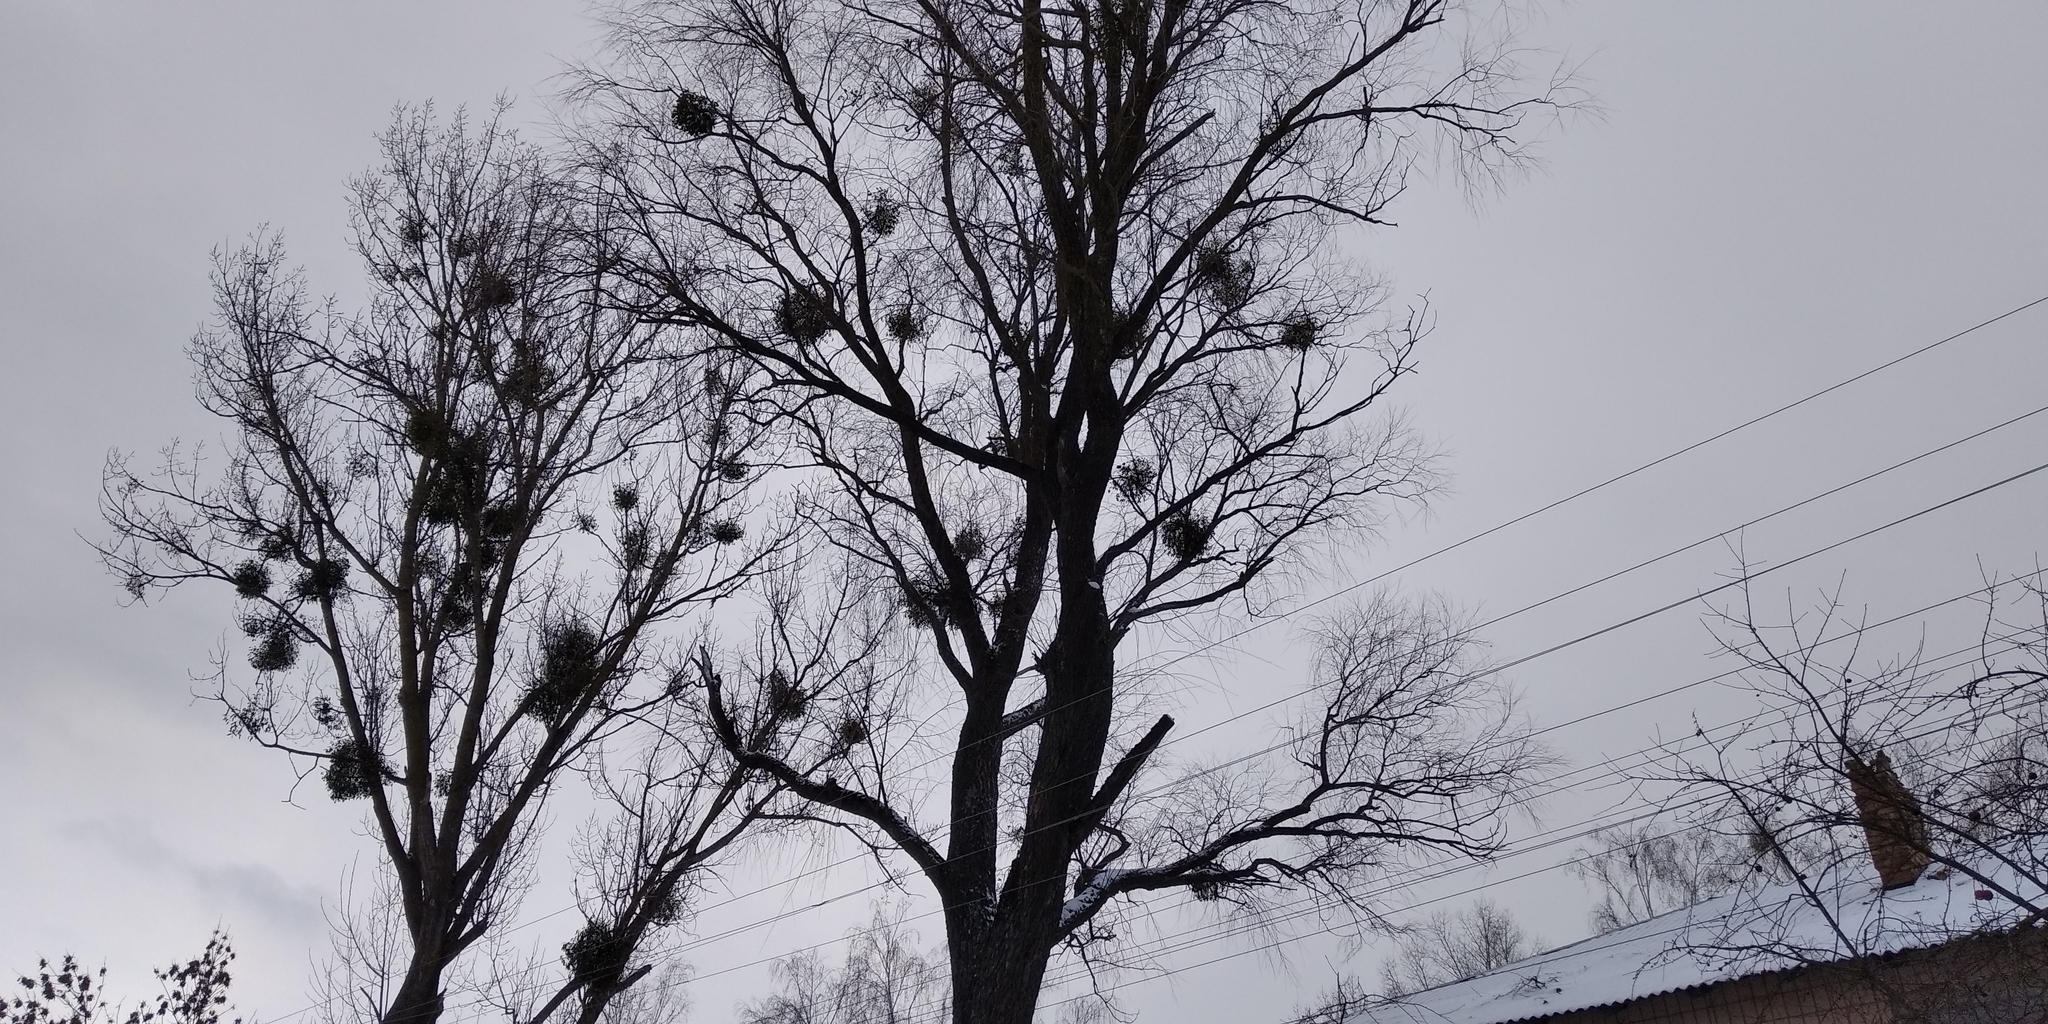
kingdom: Plantae
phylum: Tracheophyta
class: Magnoliopsida
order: Santalales
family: Viscaceae
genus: Viscum
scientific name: Viscum album
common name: Mistletoe
